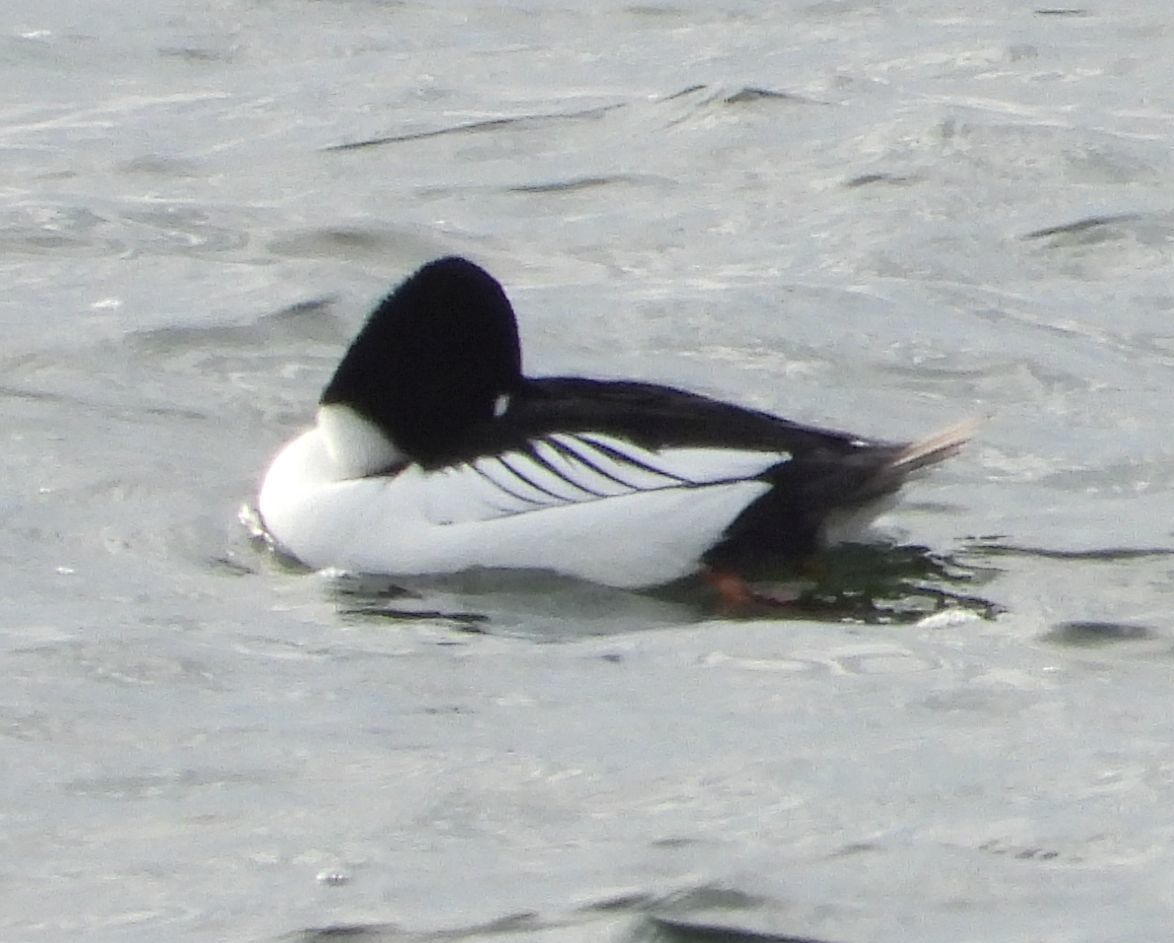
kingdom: Animalia
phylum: Chordata
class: Aves
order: Anseriformes
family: Anatidae
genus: Bucephala
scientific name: Bucephala clangula
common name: Common goldeneye
